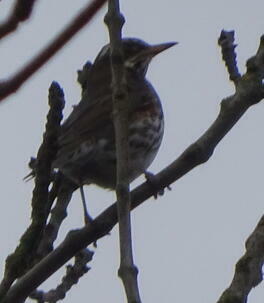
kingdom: Animalia
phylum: Chordata
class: Aves
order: Passeriformes
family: Turdidae
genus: Turdus
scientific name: Turdus iliacus
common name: Redwing
